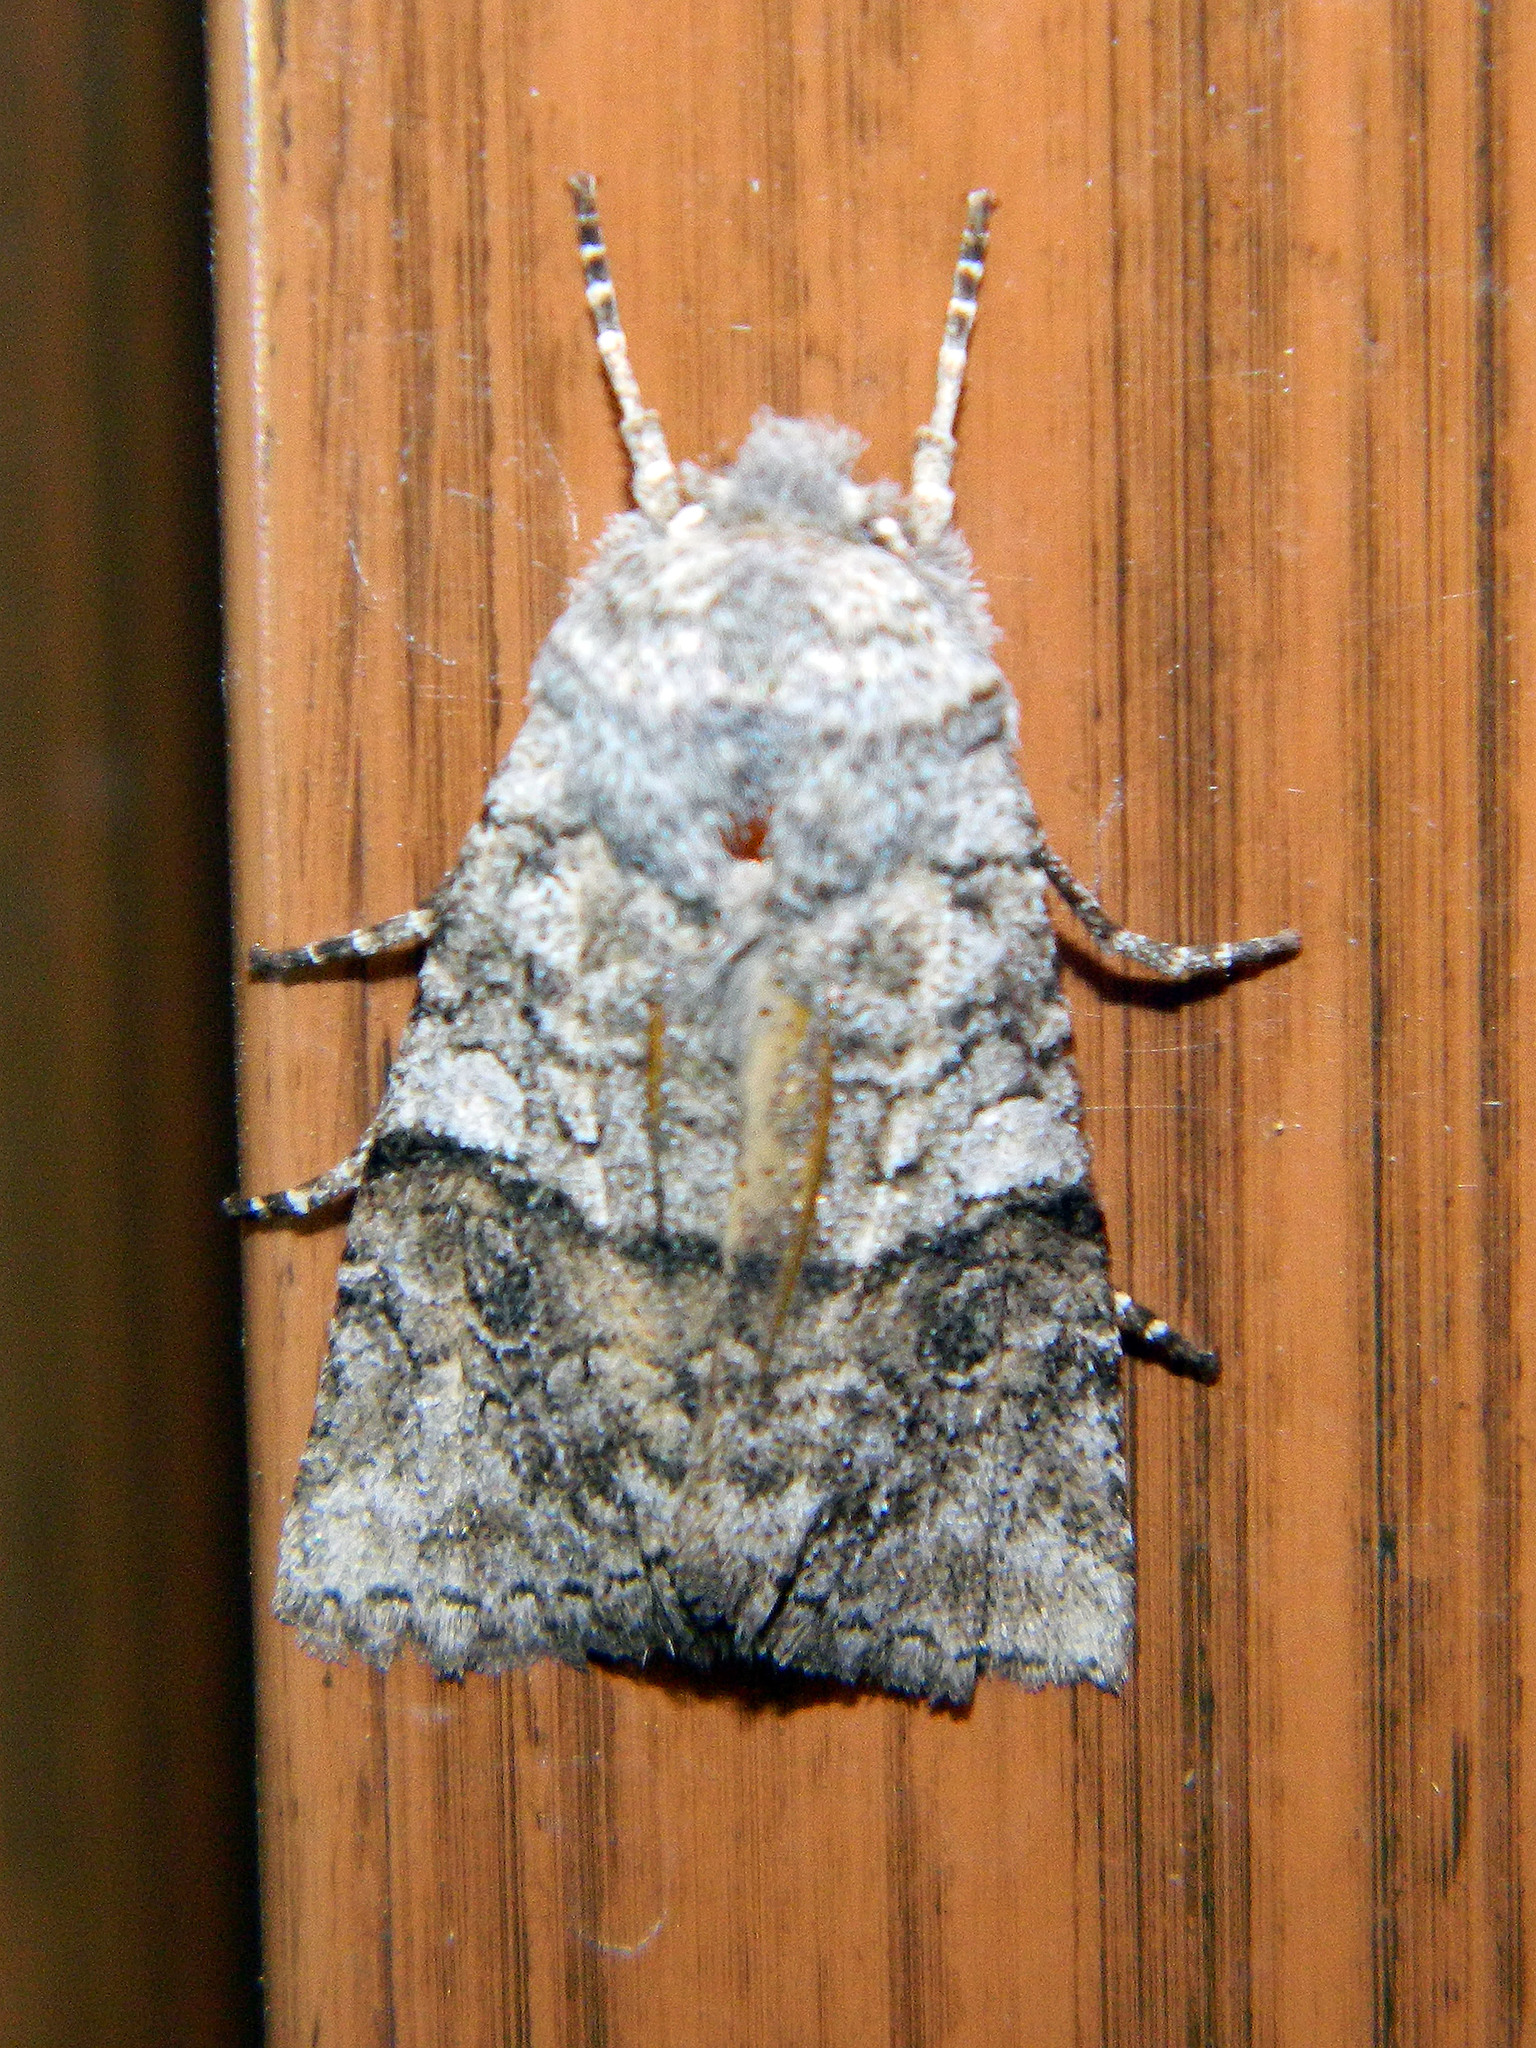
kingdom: Animalia
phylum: Arthropoda
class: Insecta
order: Lepidoptera
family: Noctuidae
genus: Litholomia
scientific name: Litholomia napaea
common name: False pinion moth
